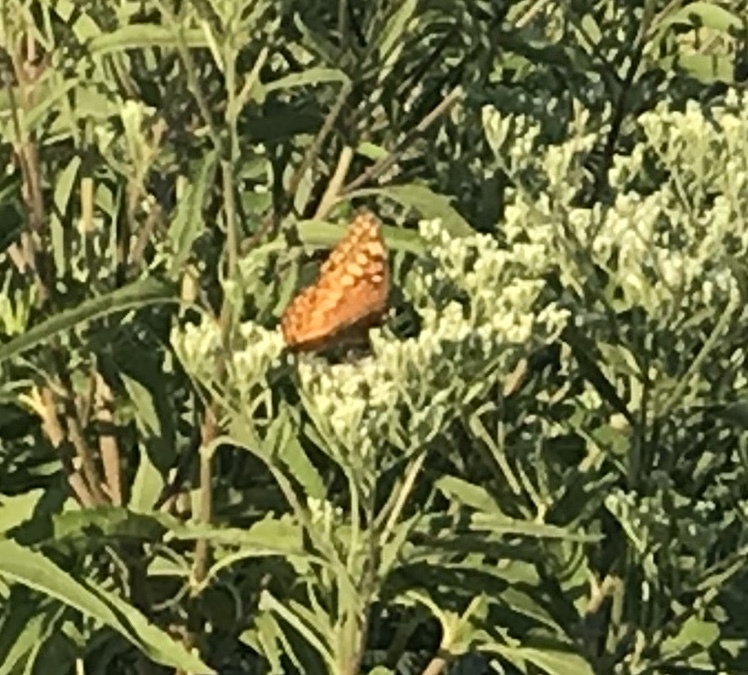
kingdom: Animalia
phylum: Arthropoda
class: Insecta
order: Lepidoptera
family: Nymphalidae
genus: Euptoieta
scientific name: Euptoieta claudia
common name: Variegated fritillary
